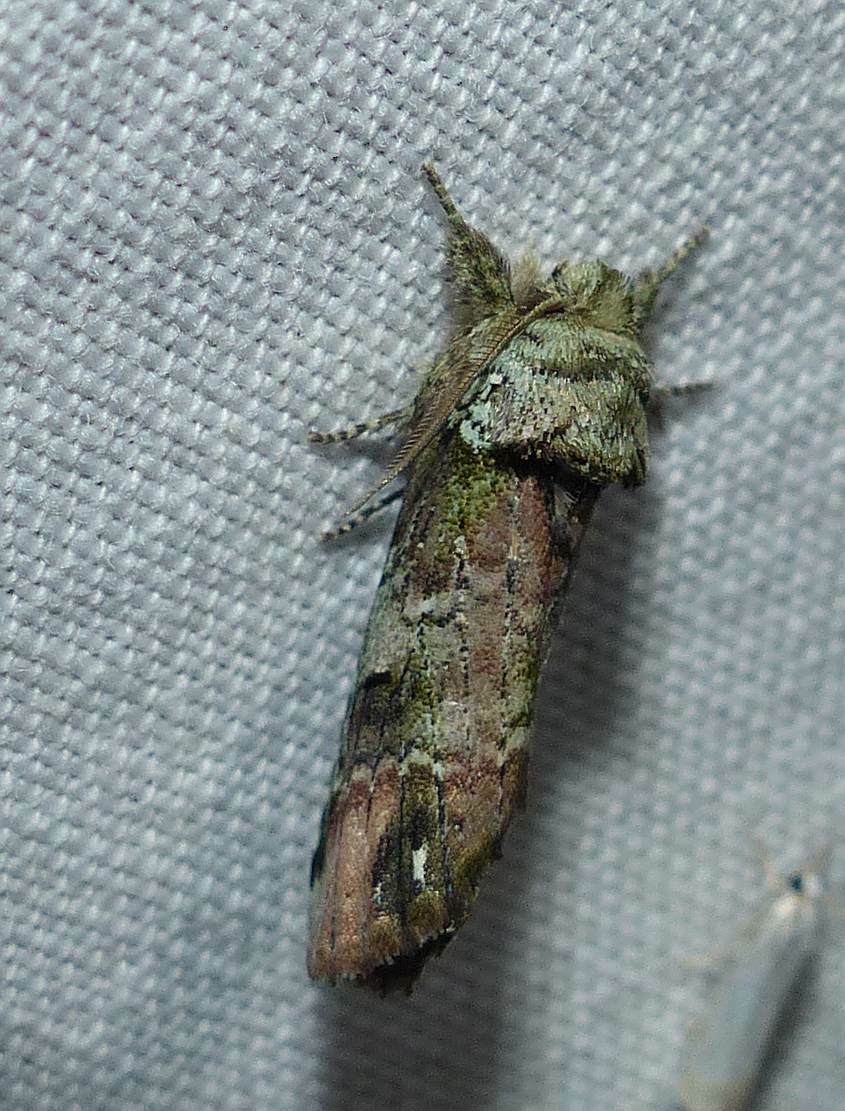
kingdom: Animalia
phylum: Arthropoda
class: Insecta
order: Lepidoptera
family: Notodontidae
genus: Schizura
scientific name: Schizura
